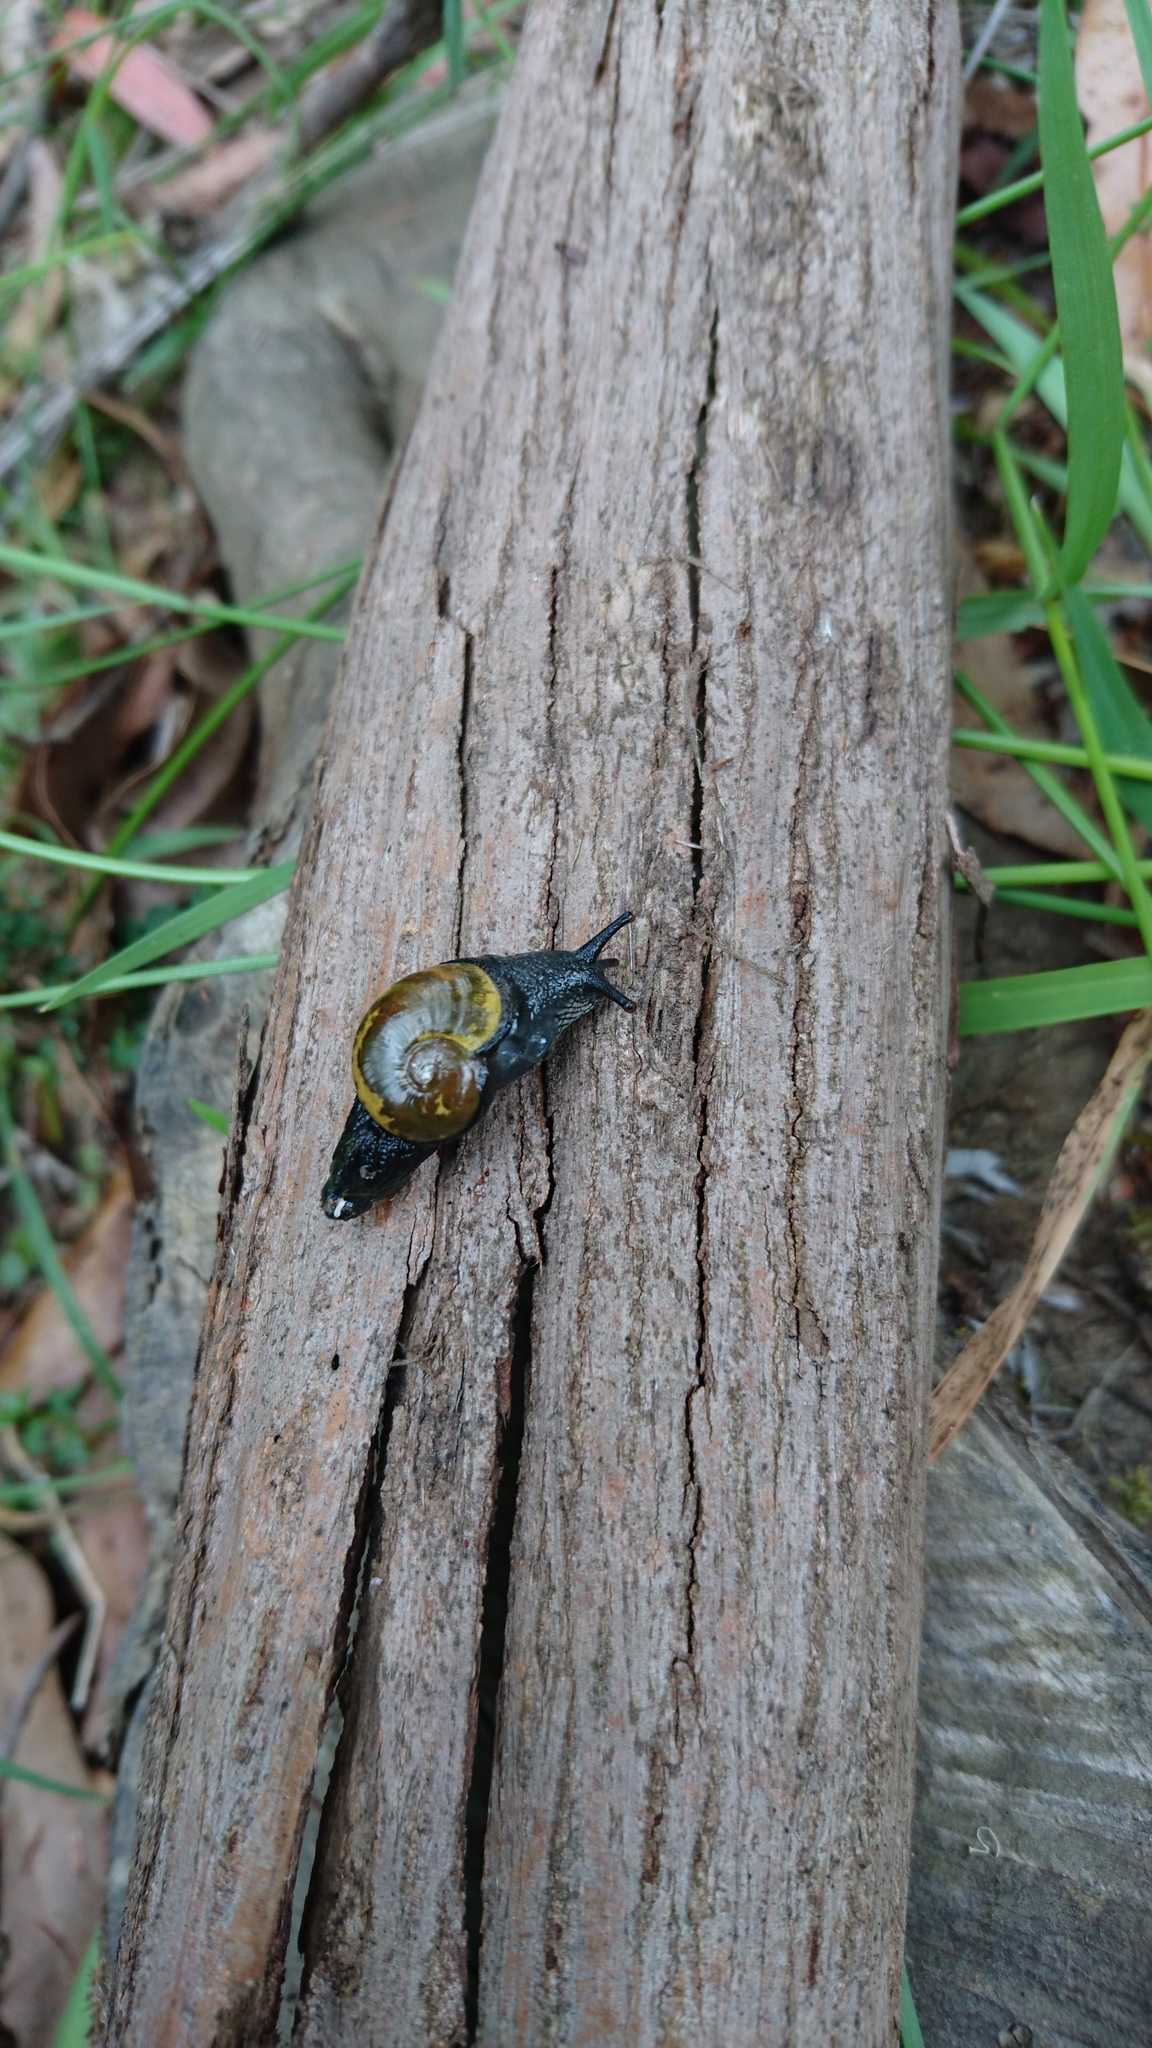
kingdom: Animalia
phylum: Mollusca
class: Gastropoda
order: Stylommatophora
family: Helicarionidae
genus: Helicarion
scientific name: Helicarion cuvieri
